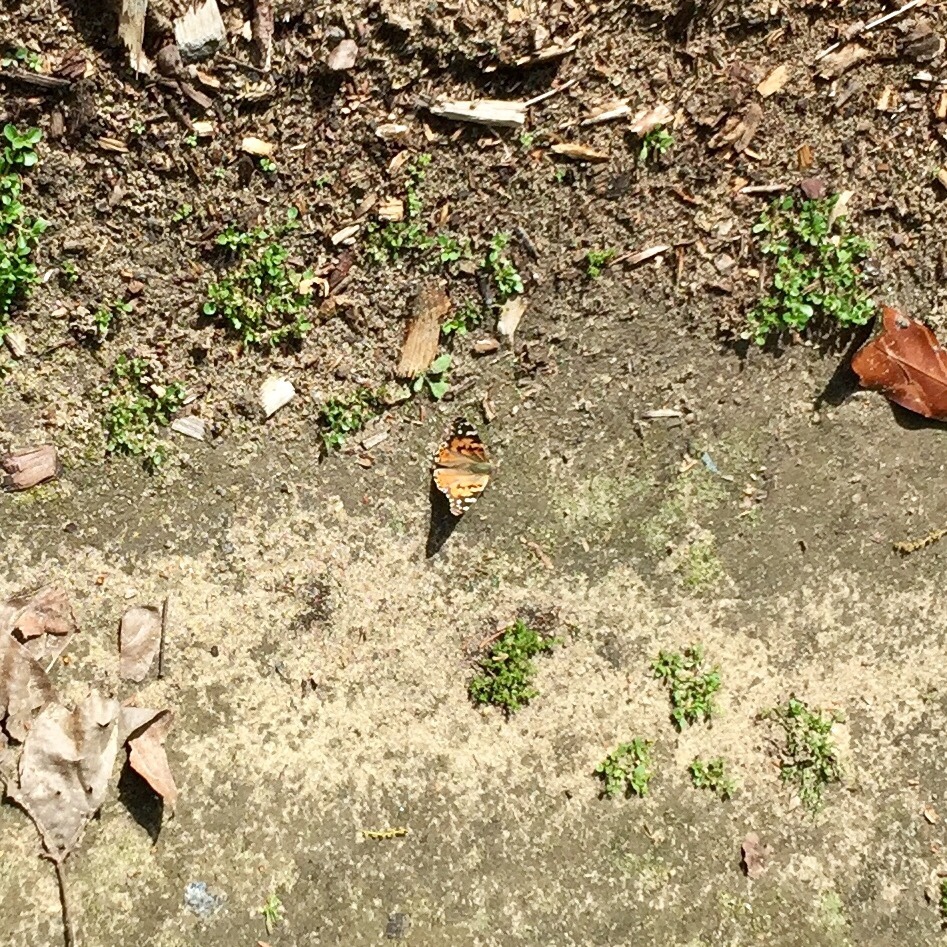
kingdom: Animalia
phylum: Arthropoda
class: Insecta
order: Lepidoptera
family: Nymphalidae
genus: Vanessa
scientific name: Vanessa cardui
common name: Painted lady
